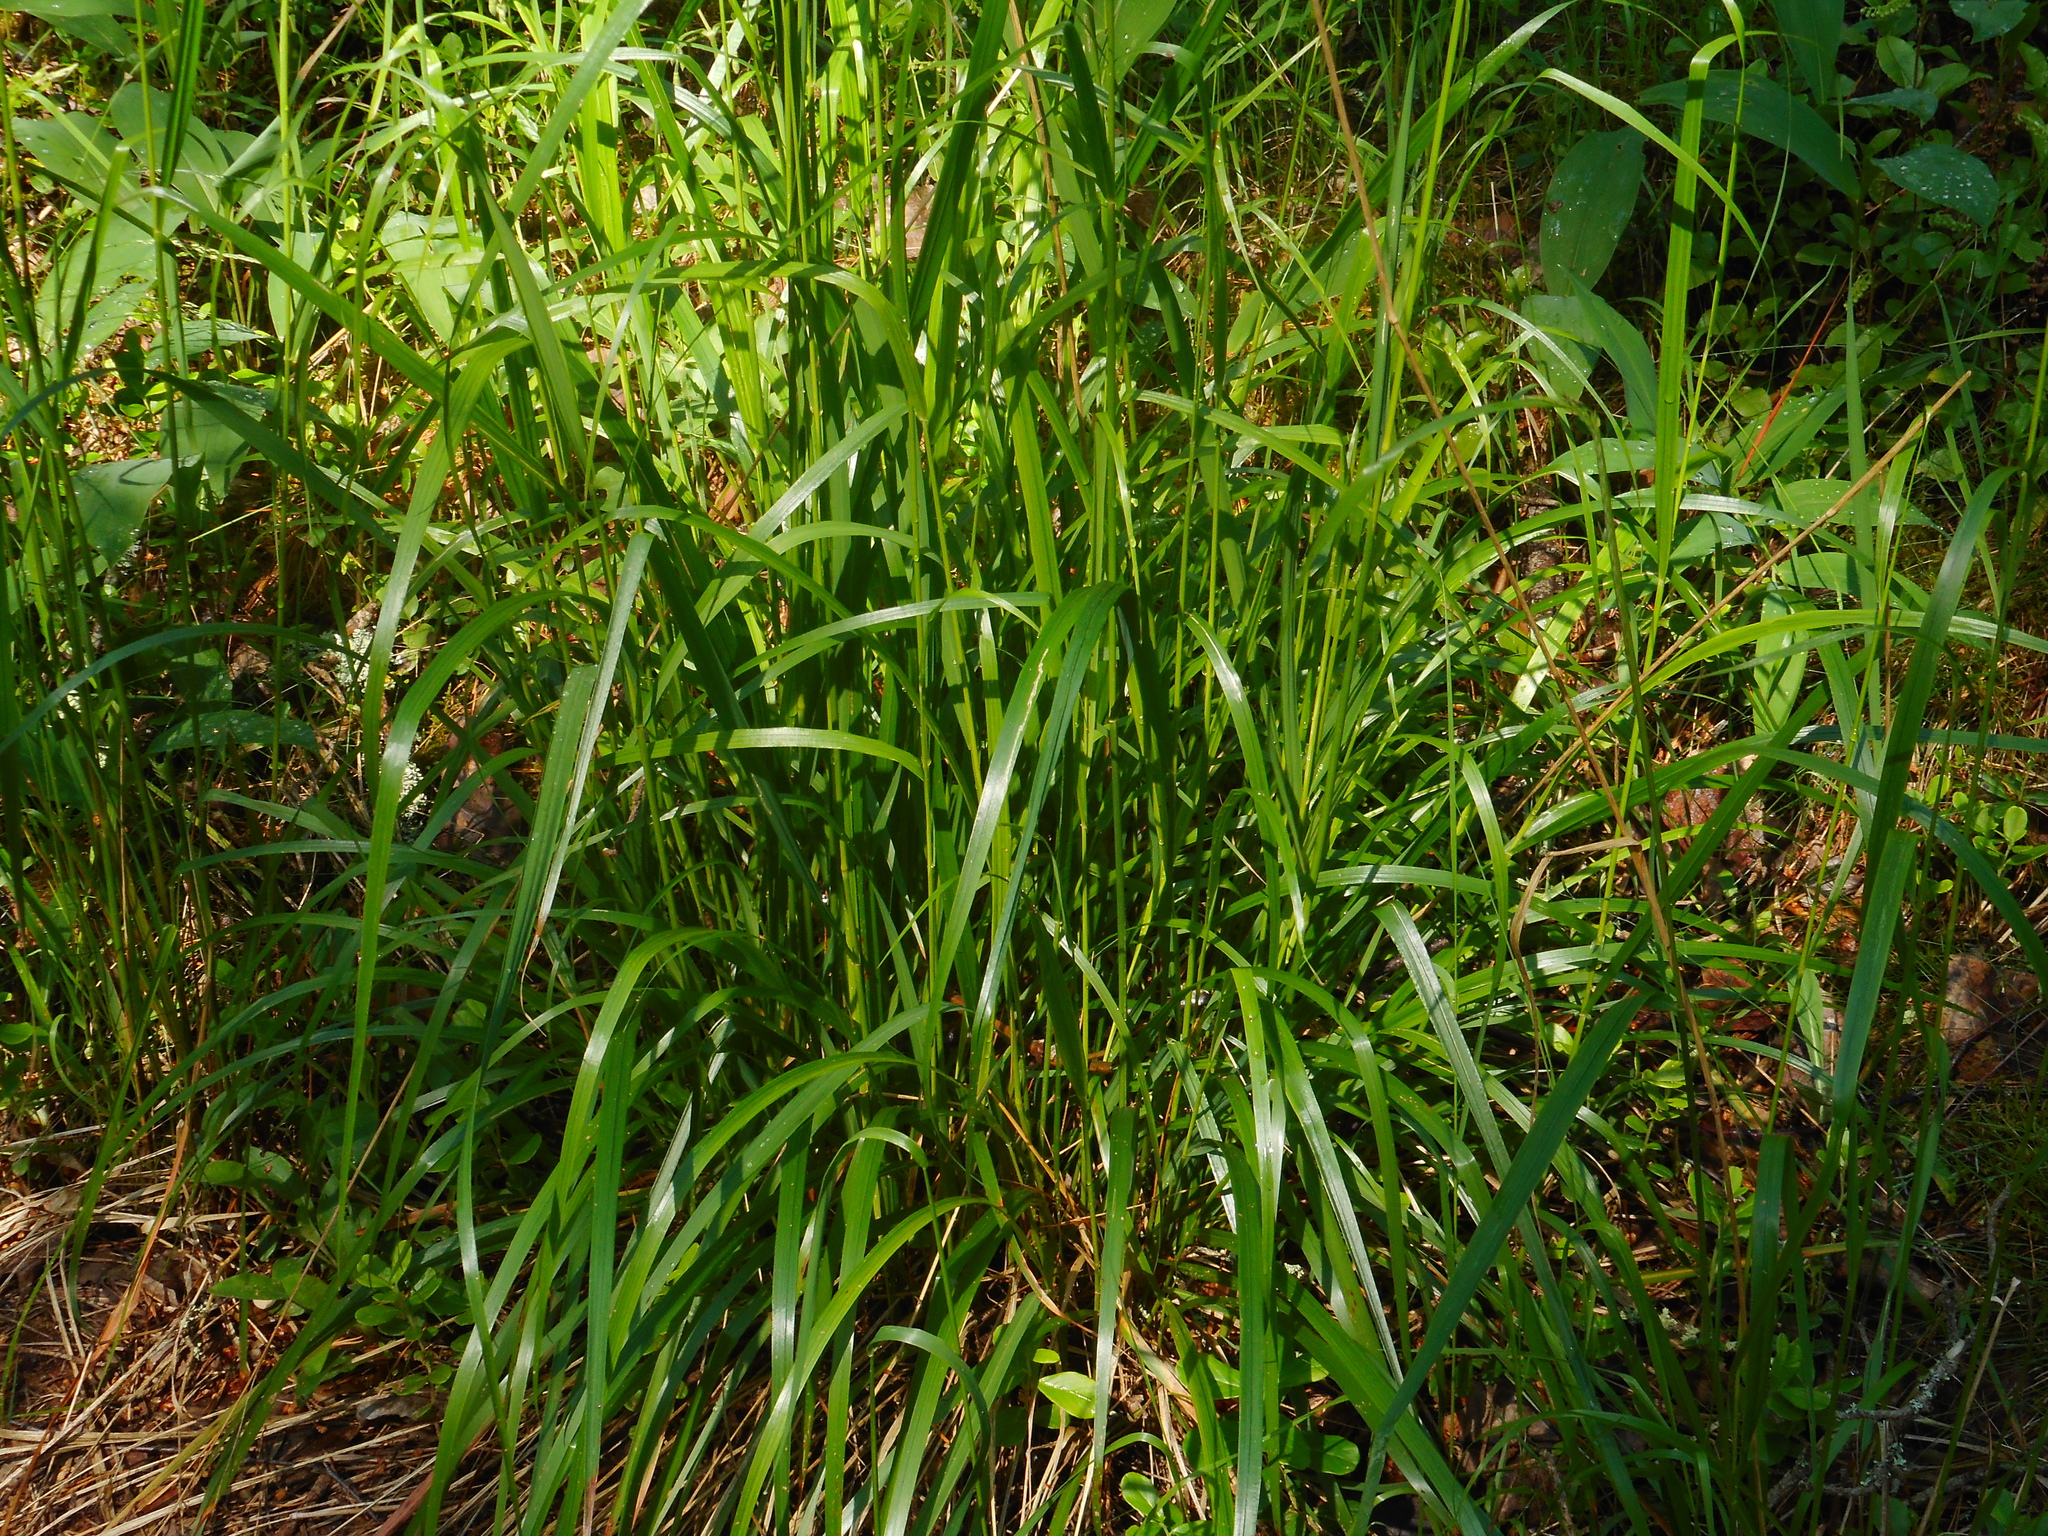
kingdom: Plantae
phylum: Tracheophyta
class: Liliopsida
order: Poales
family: Poaceae
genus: Calamagrostis
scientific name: Calamagrostis arundinacea
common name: Metskastik
